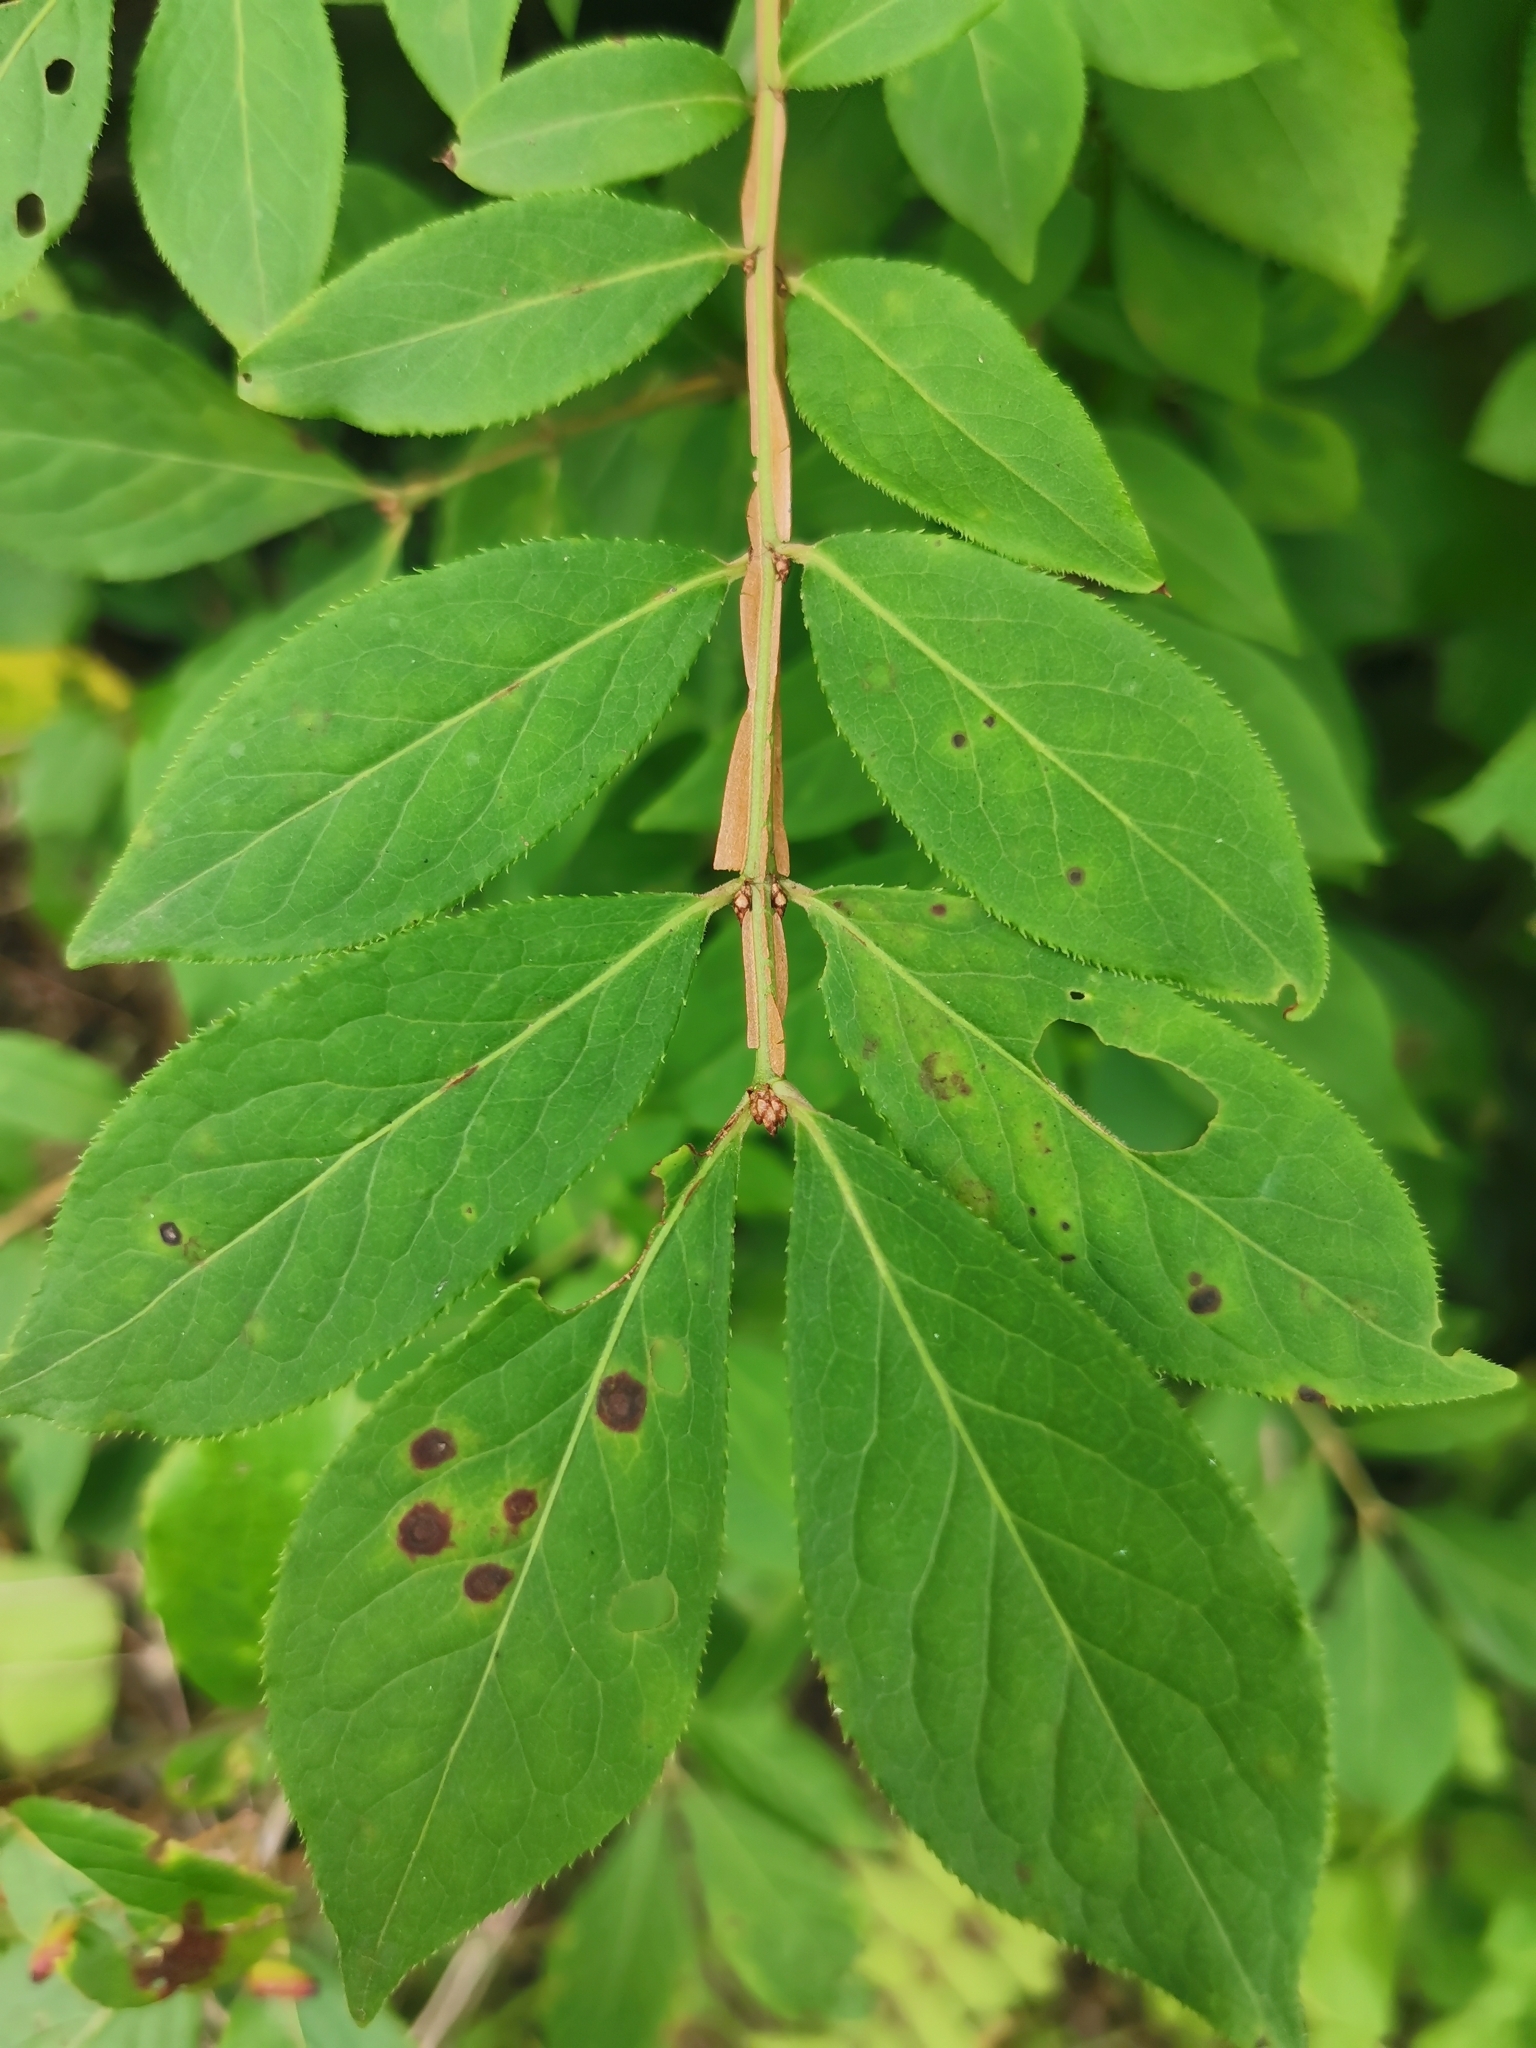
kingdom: Plantae
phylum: Tracheophyta
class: Magnoliopsida
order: Celastrales
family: Celastraceae
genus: Euonymus
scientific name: Euonymus alatus
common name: Winged euonymus
